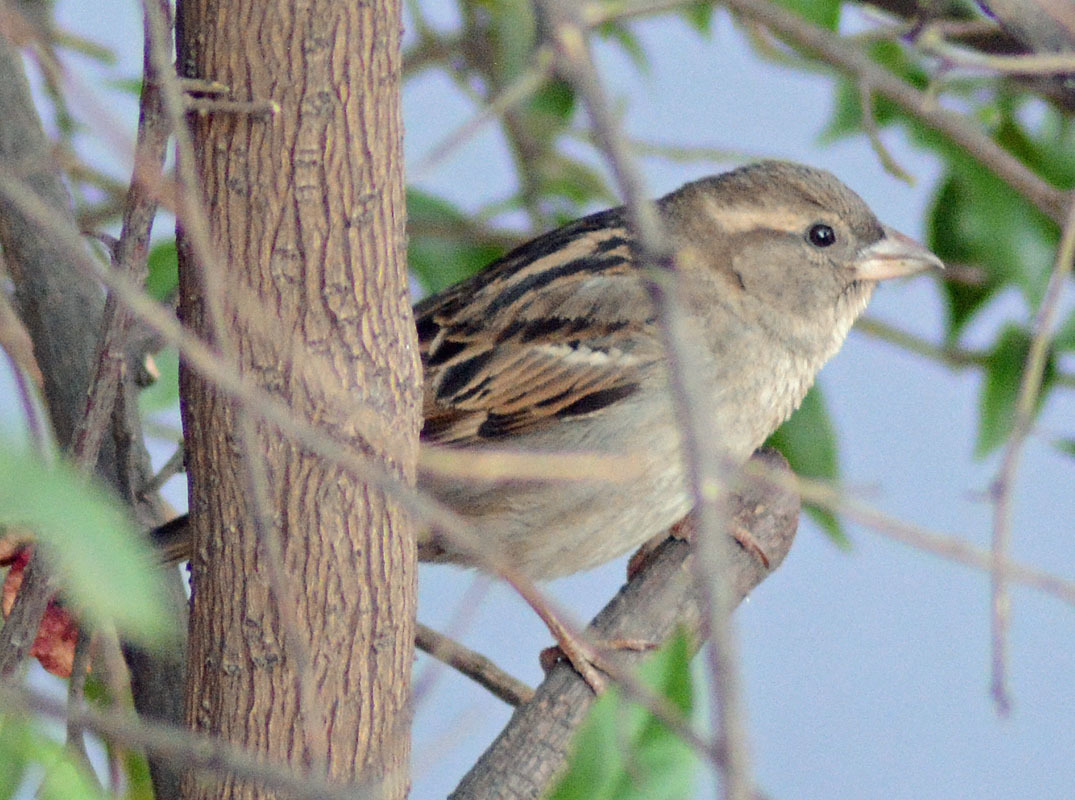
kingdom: Animalia
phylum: Chordata
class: Aves
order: Passeriformes
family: Passeridae
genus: Passer
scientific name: Passer domesticus
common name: House sparrow
